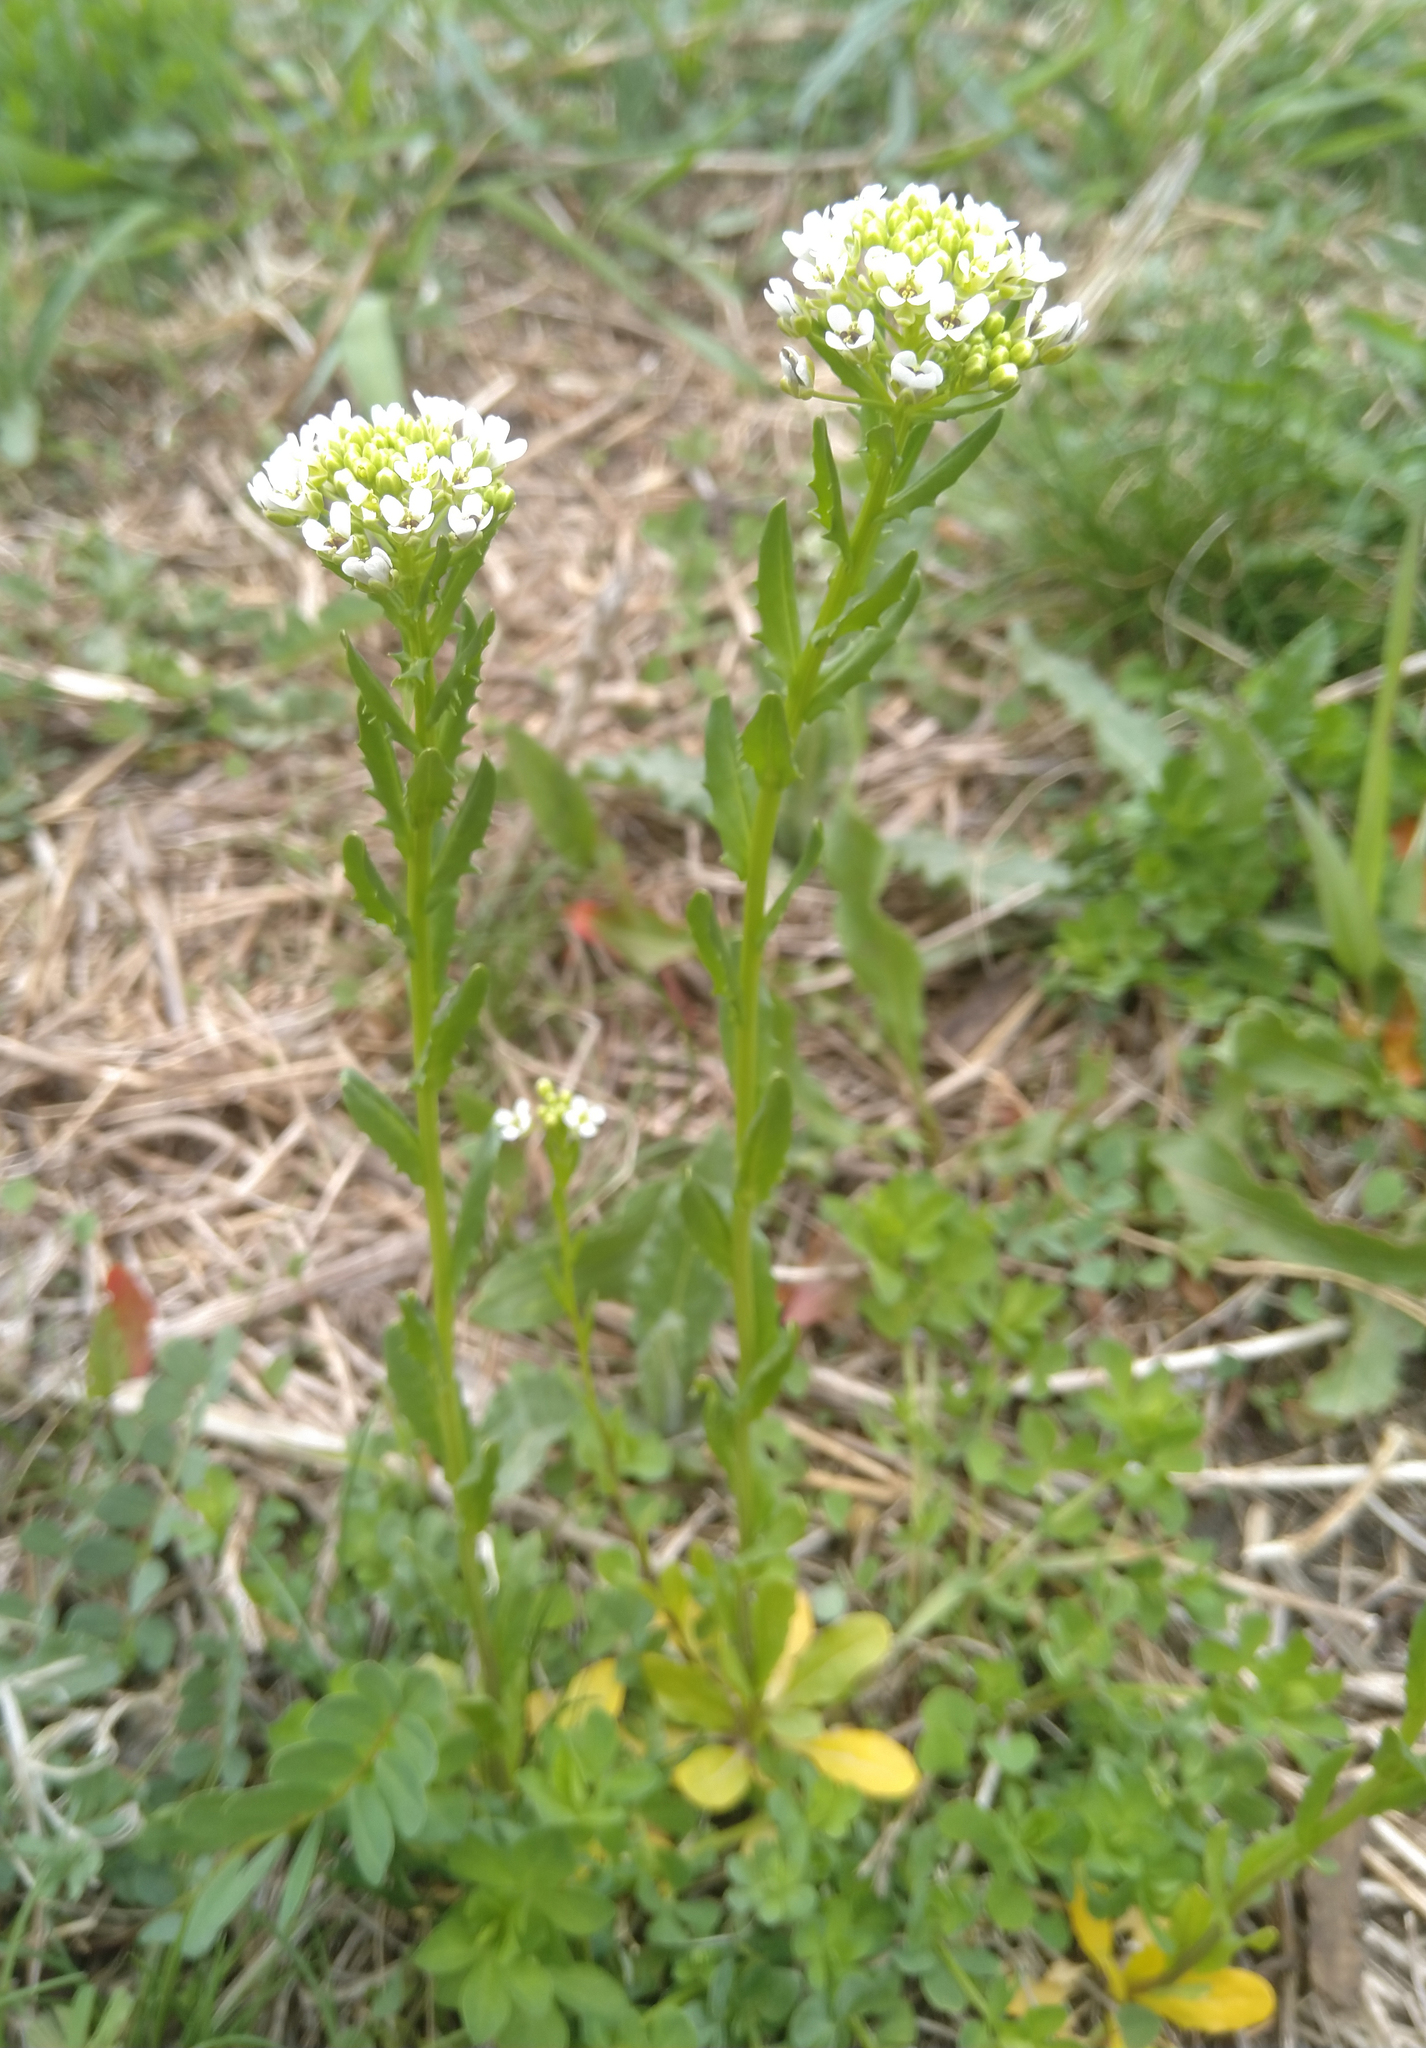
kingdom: Plantae
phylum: Tracheophyta
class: Magnoliopsida
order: Brassicales
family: Brassicaceae
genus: Thlaspi
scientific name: Thlaspi arvense
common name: Field pennycress
